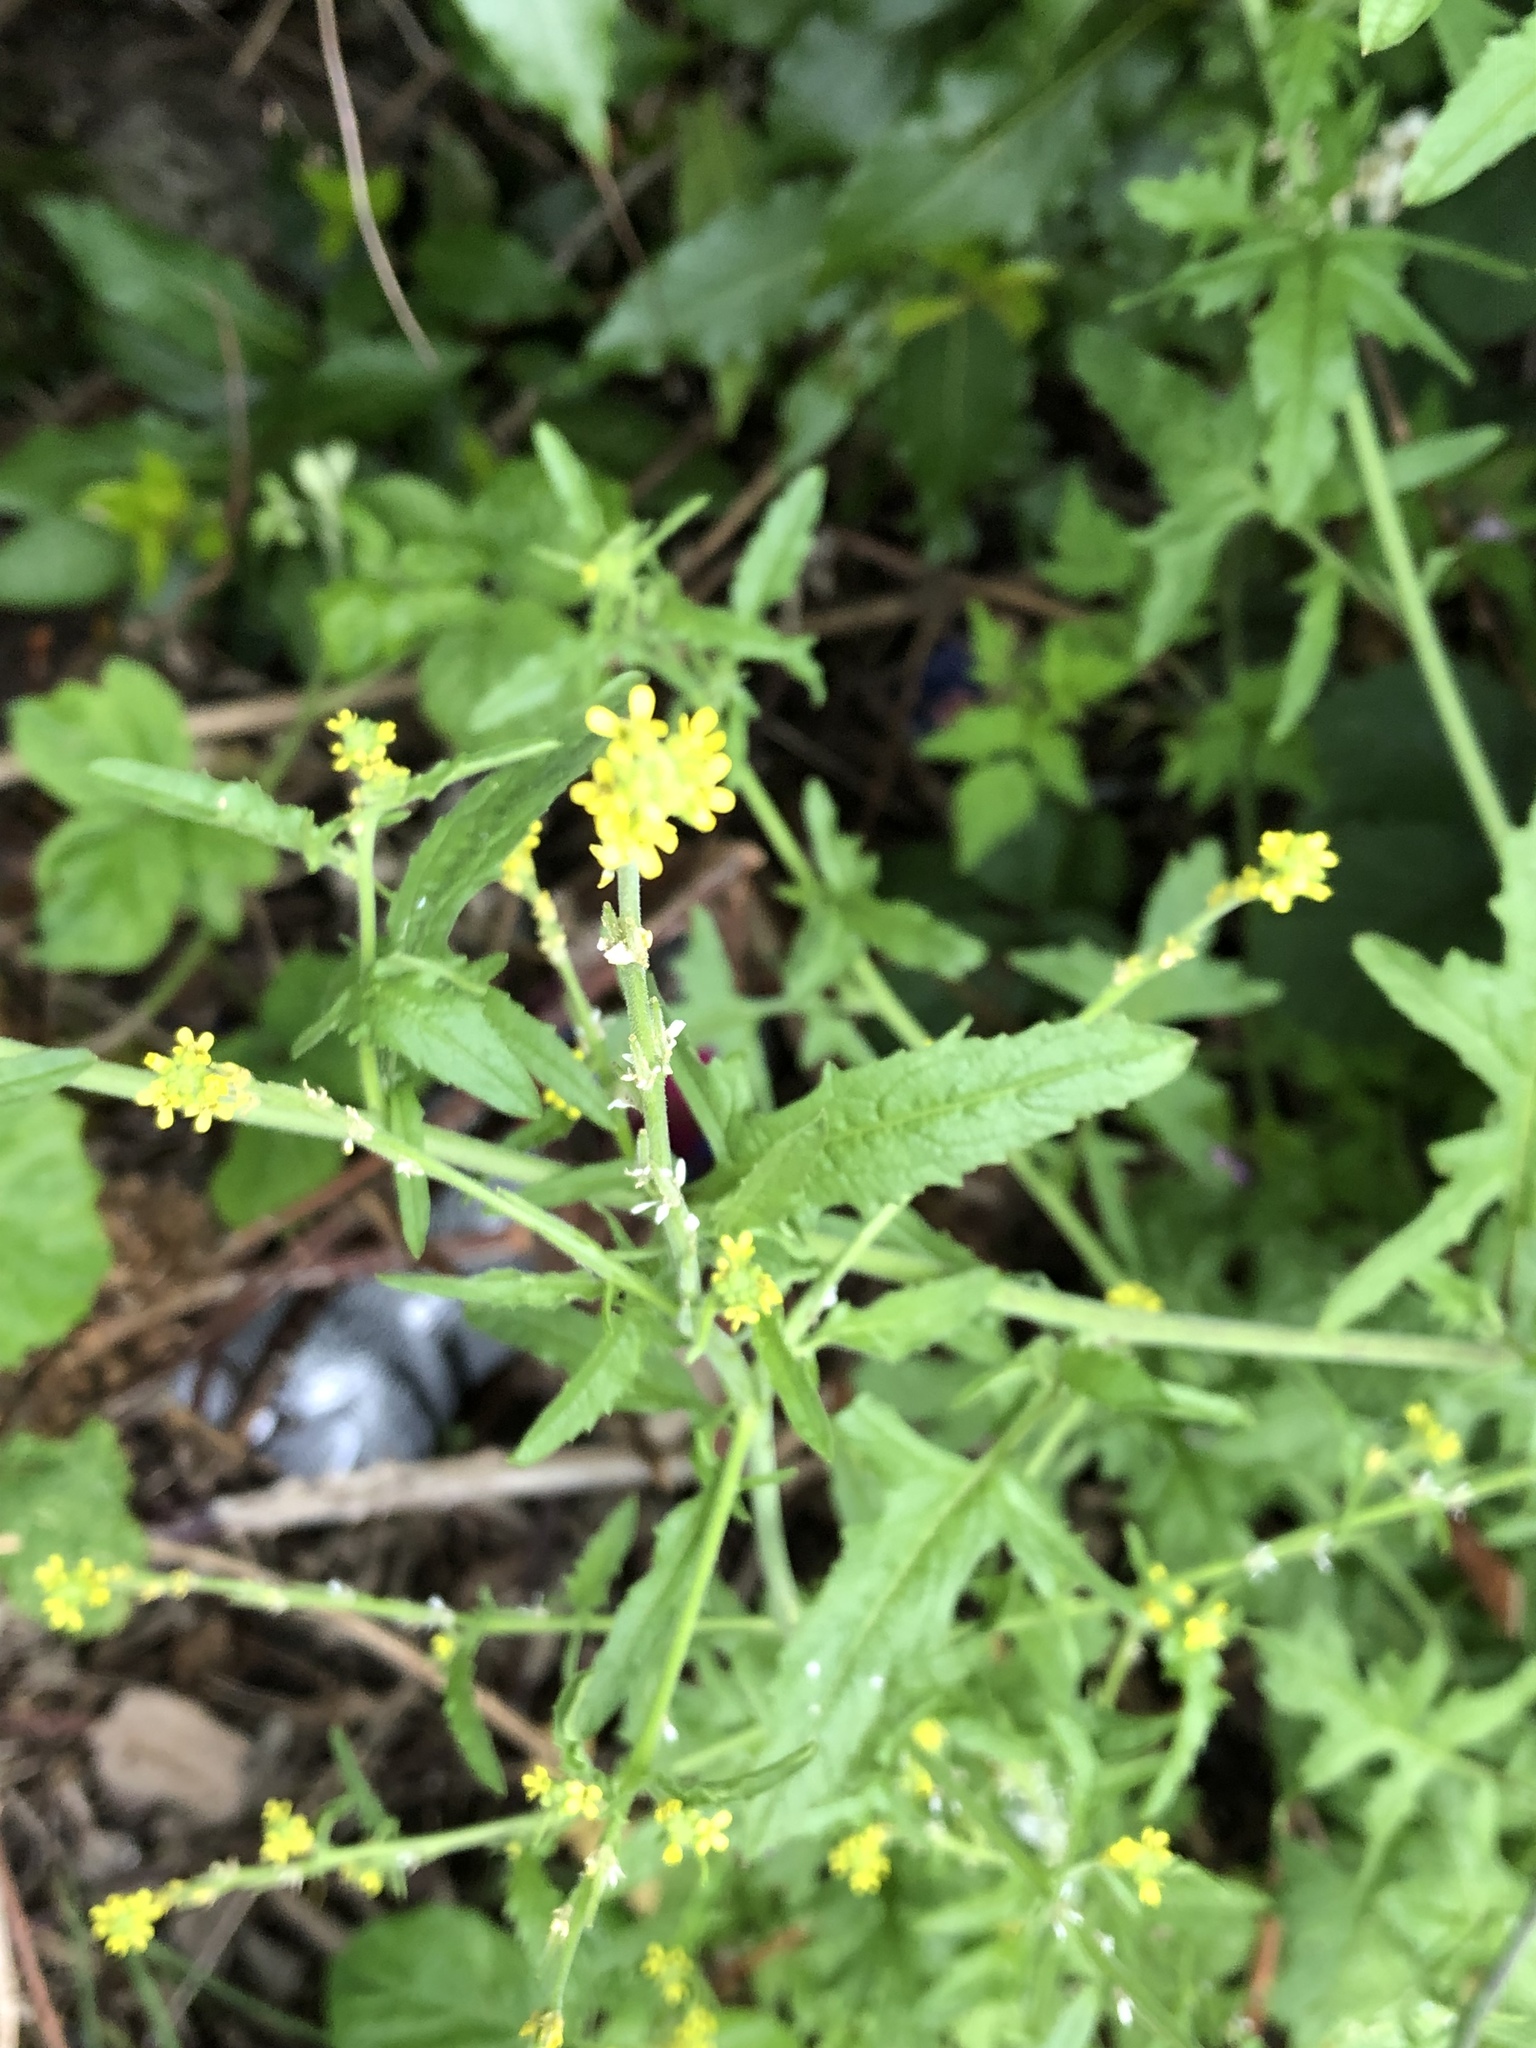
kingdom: Plantae
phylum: Tracheophyta
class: Magnoliopsida
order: Brassicales
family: Brassicaceae
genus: Sisymbrium
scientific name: Sisymbrium officinale
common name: Hedge mustard
